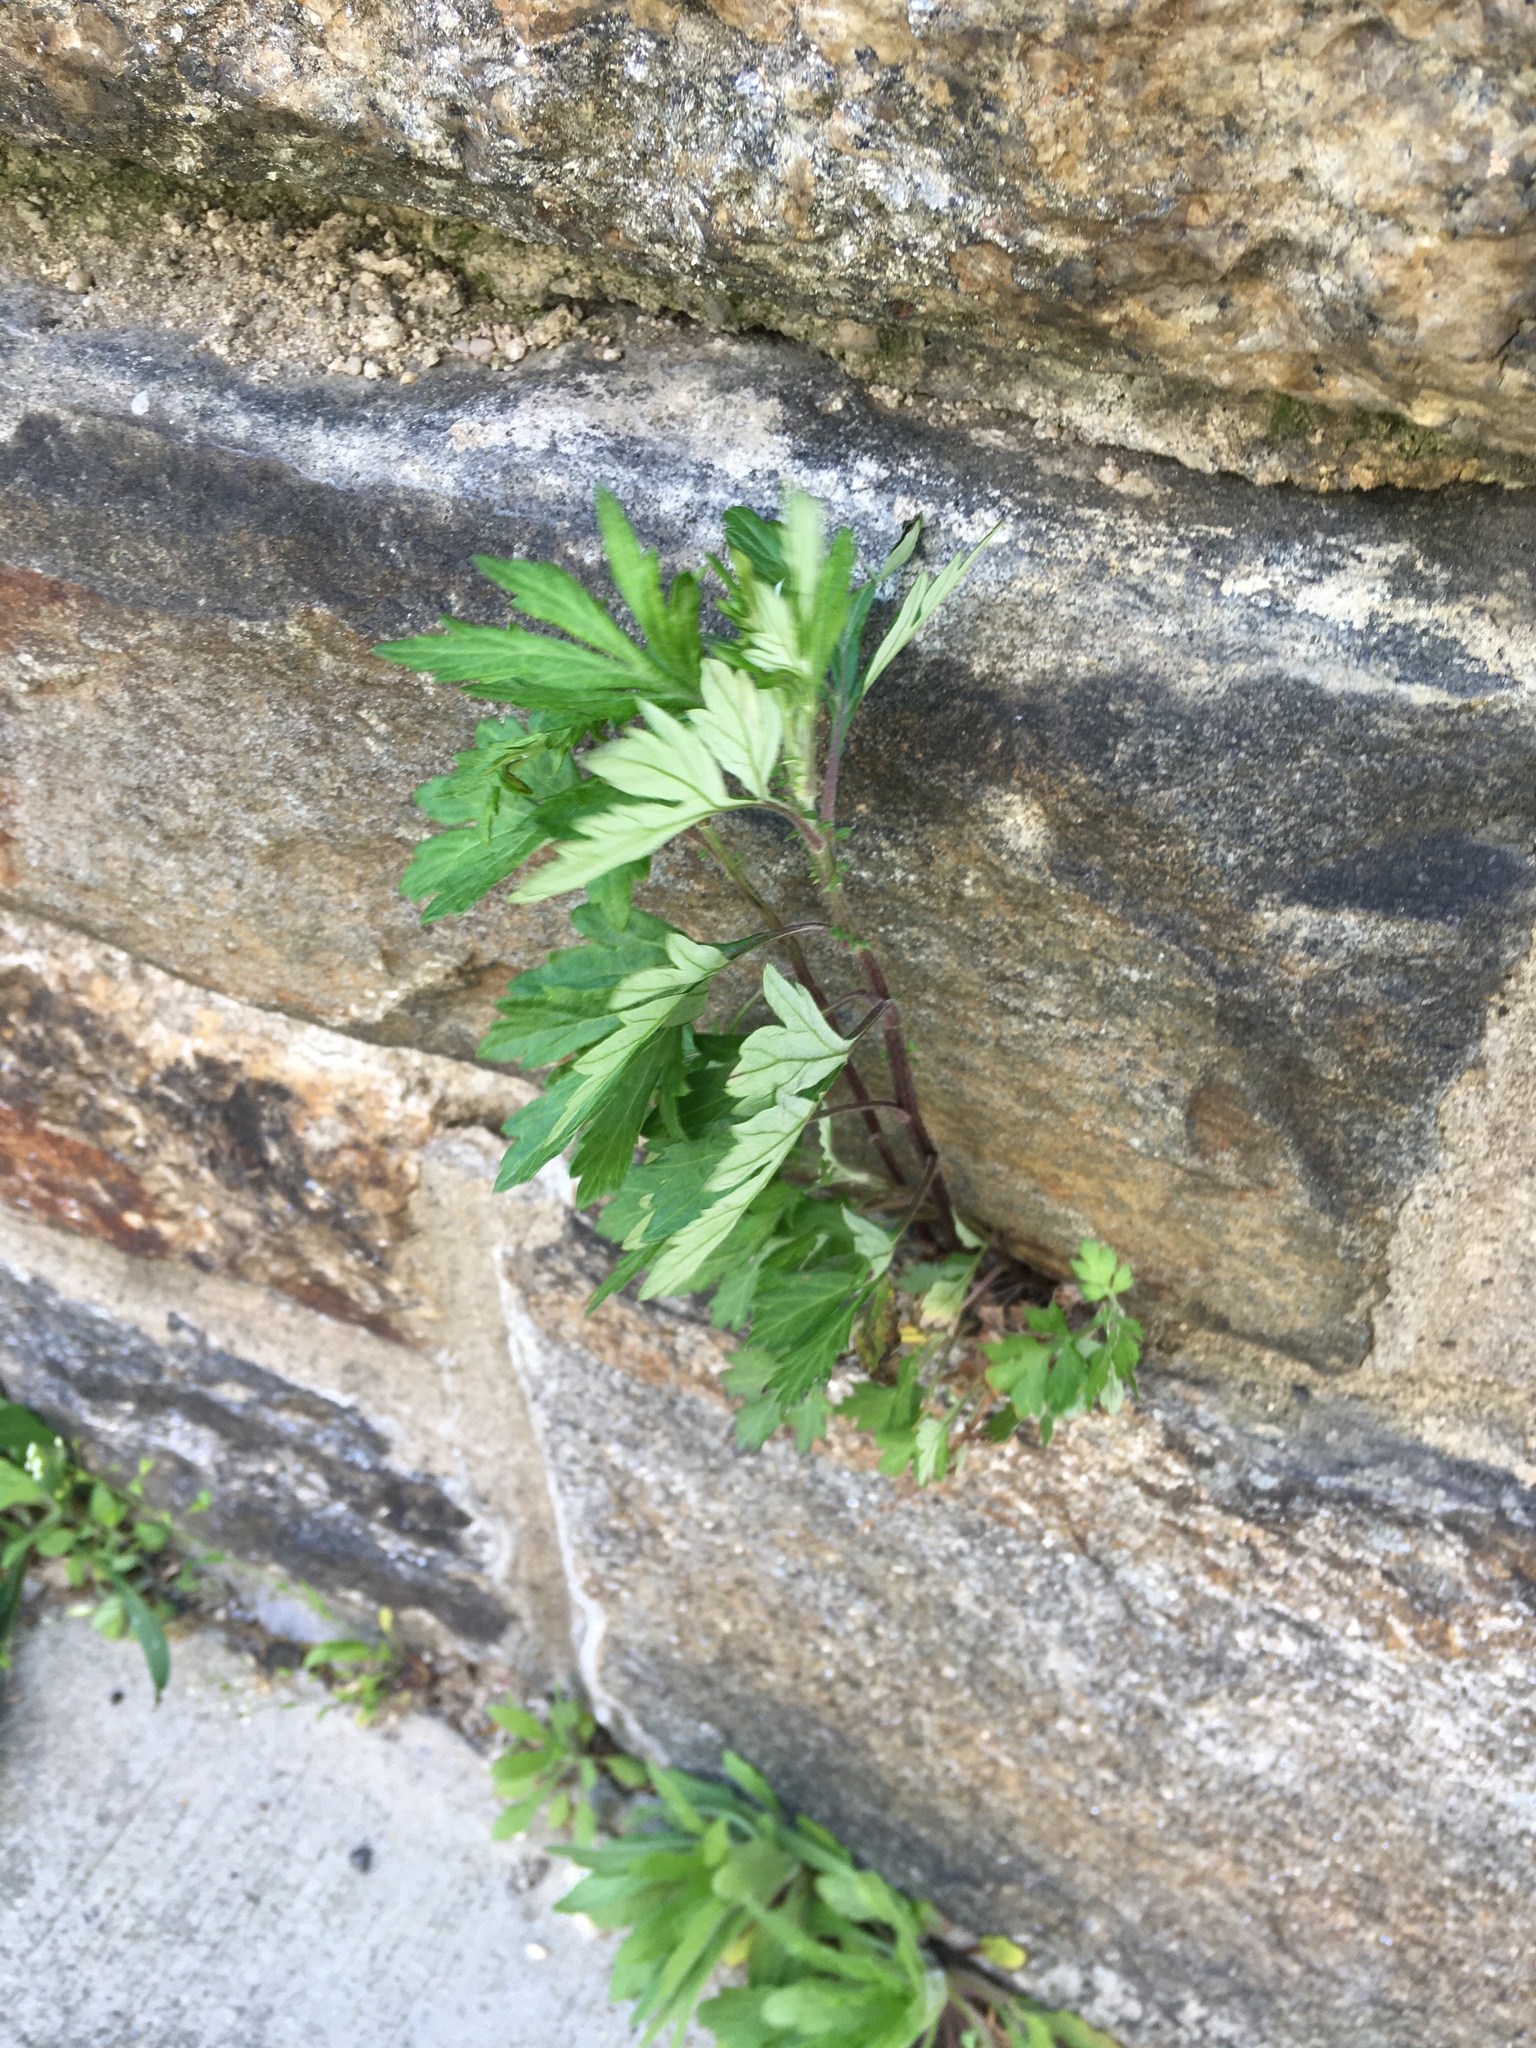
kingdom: Plantae
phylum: Tracheophyta
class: Magnoliopsida
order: Asterales
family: Asteraceae
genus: Artemisia
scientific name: Artemisia vulgaris
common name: Mugwort
